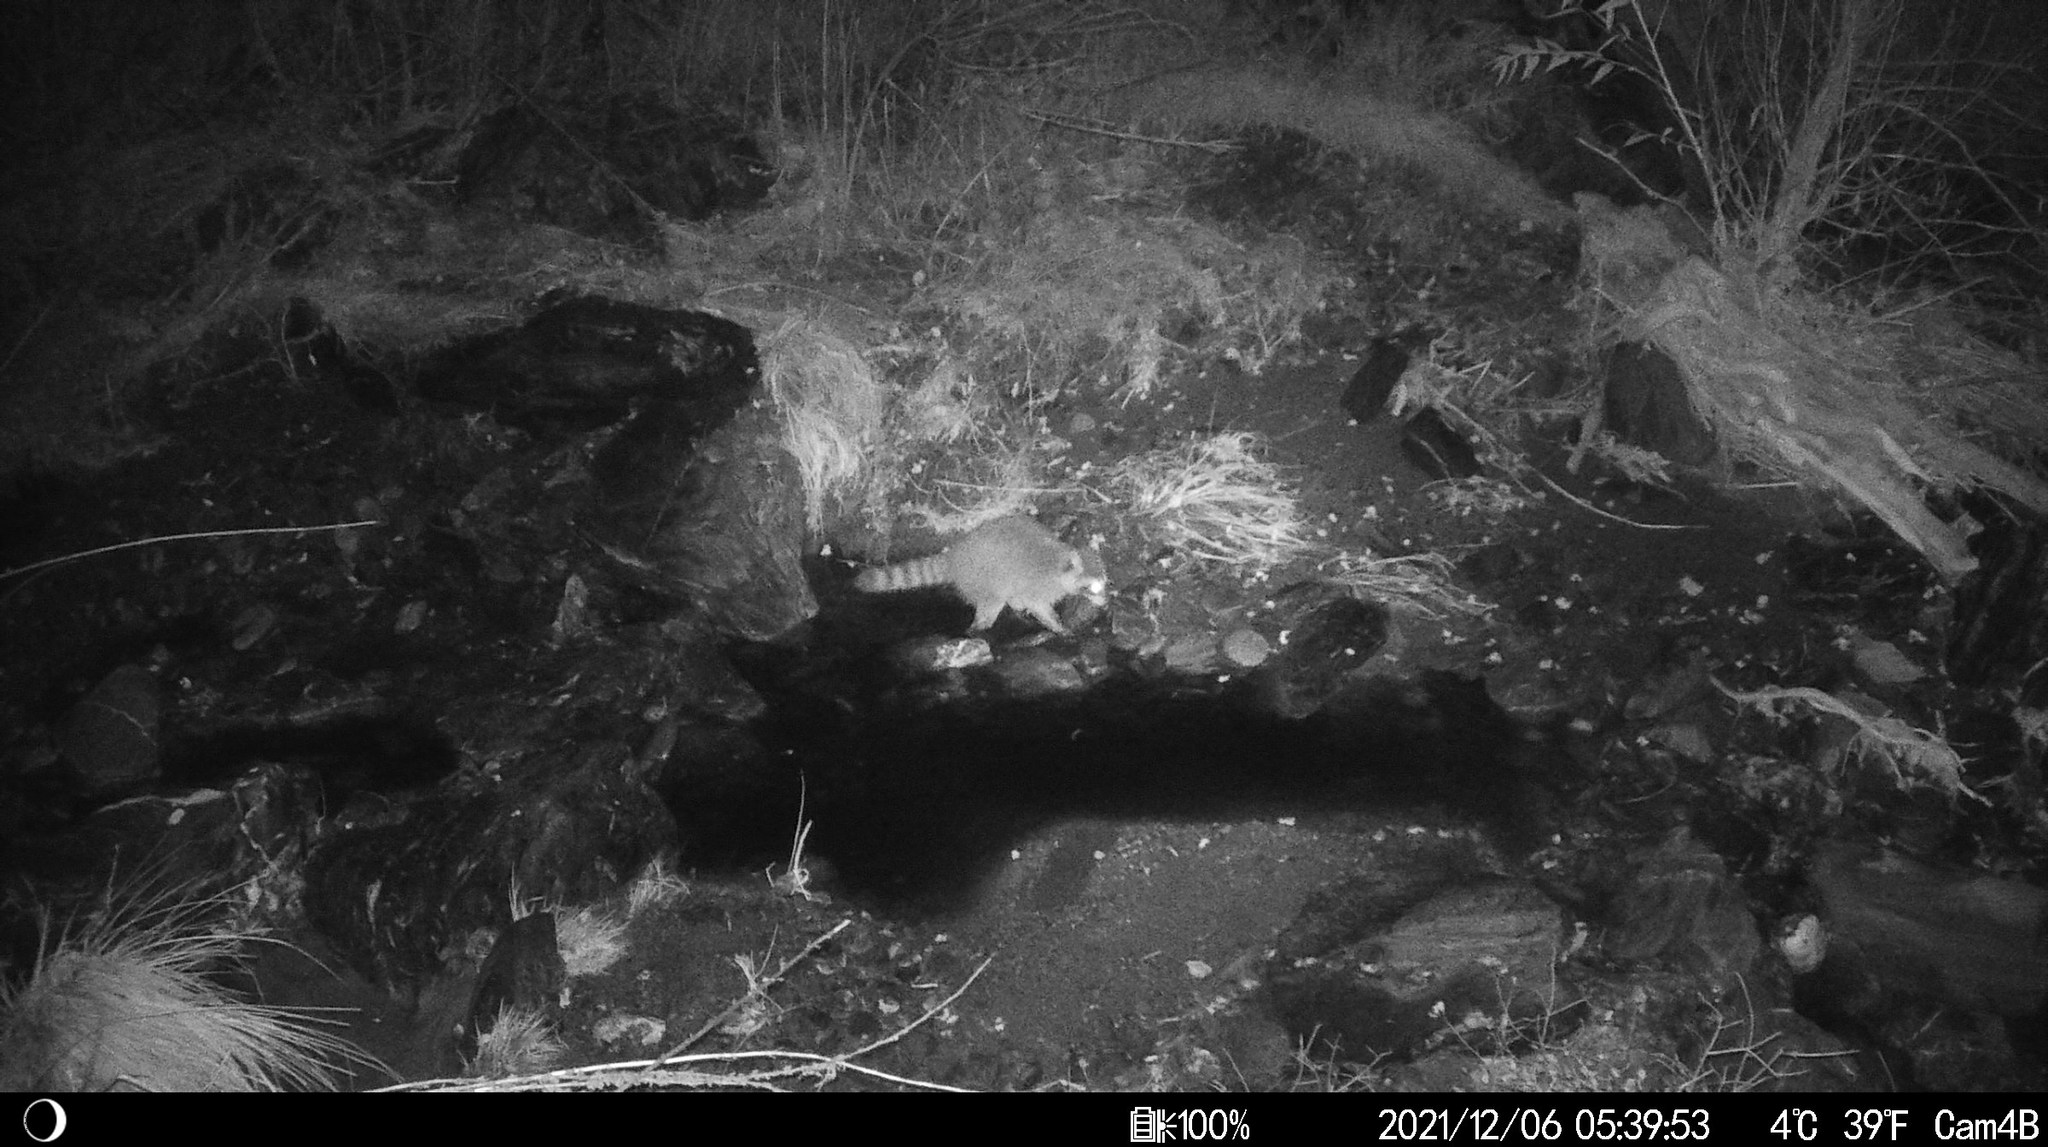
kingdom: Animalia
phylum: Chordata
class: Mammalia
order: Carnivora
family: Procyonidae
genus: Procyon
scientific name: Procyon lotor
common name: Raccoon
